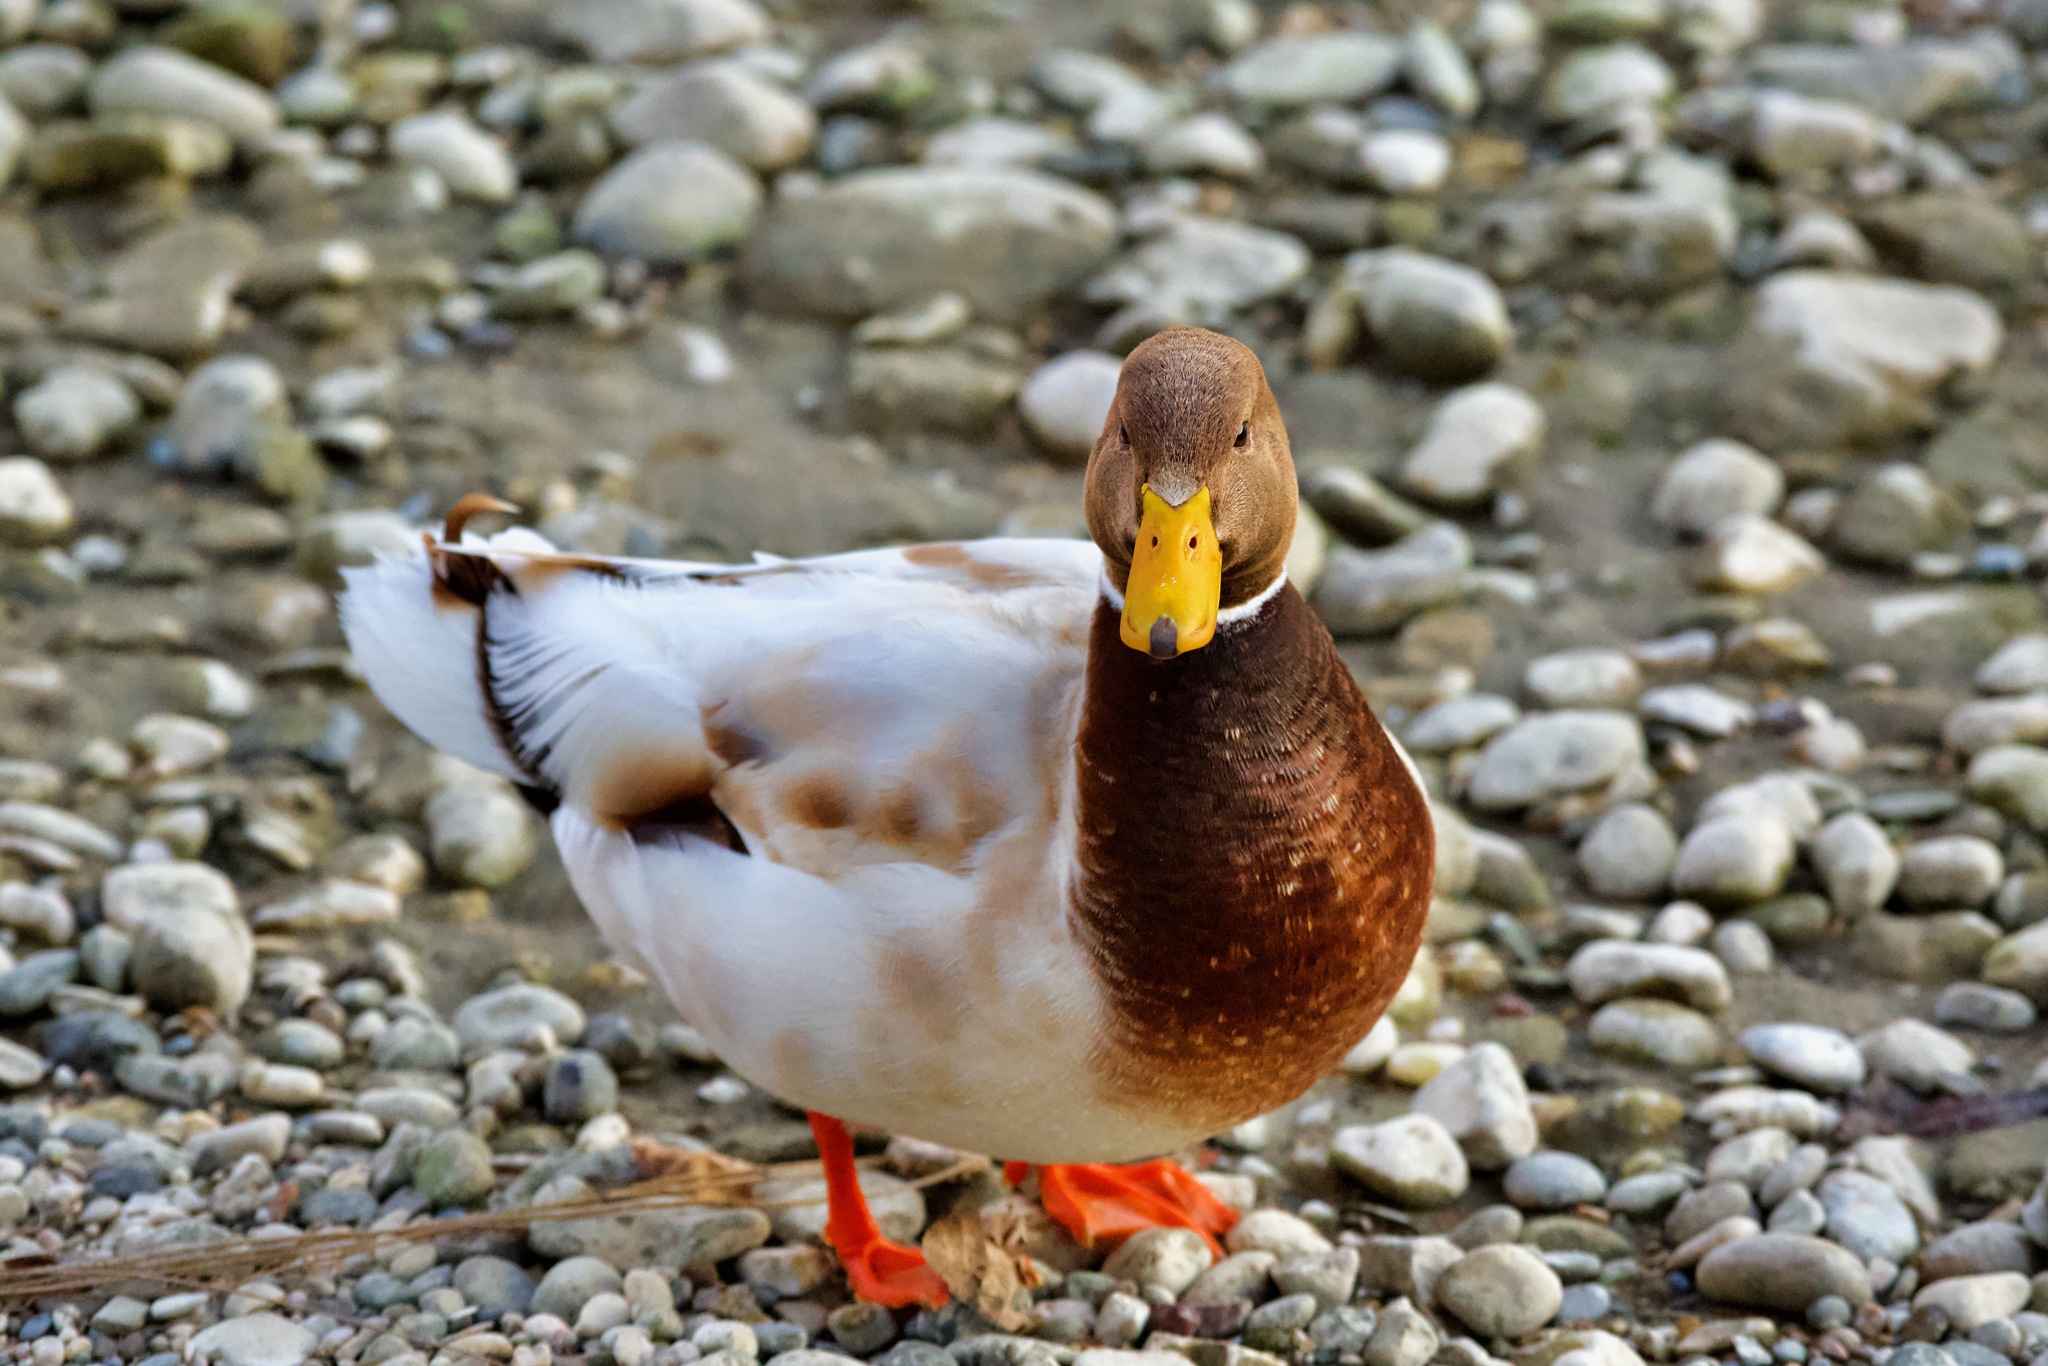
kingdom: Animalia
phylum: Chordata
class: Aves
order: Anseriformes
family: Anatidae
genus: Anas
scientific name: Anas platyrhynchos
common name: Mallard
